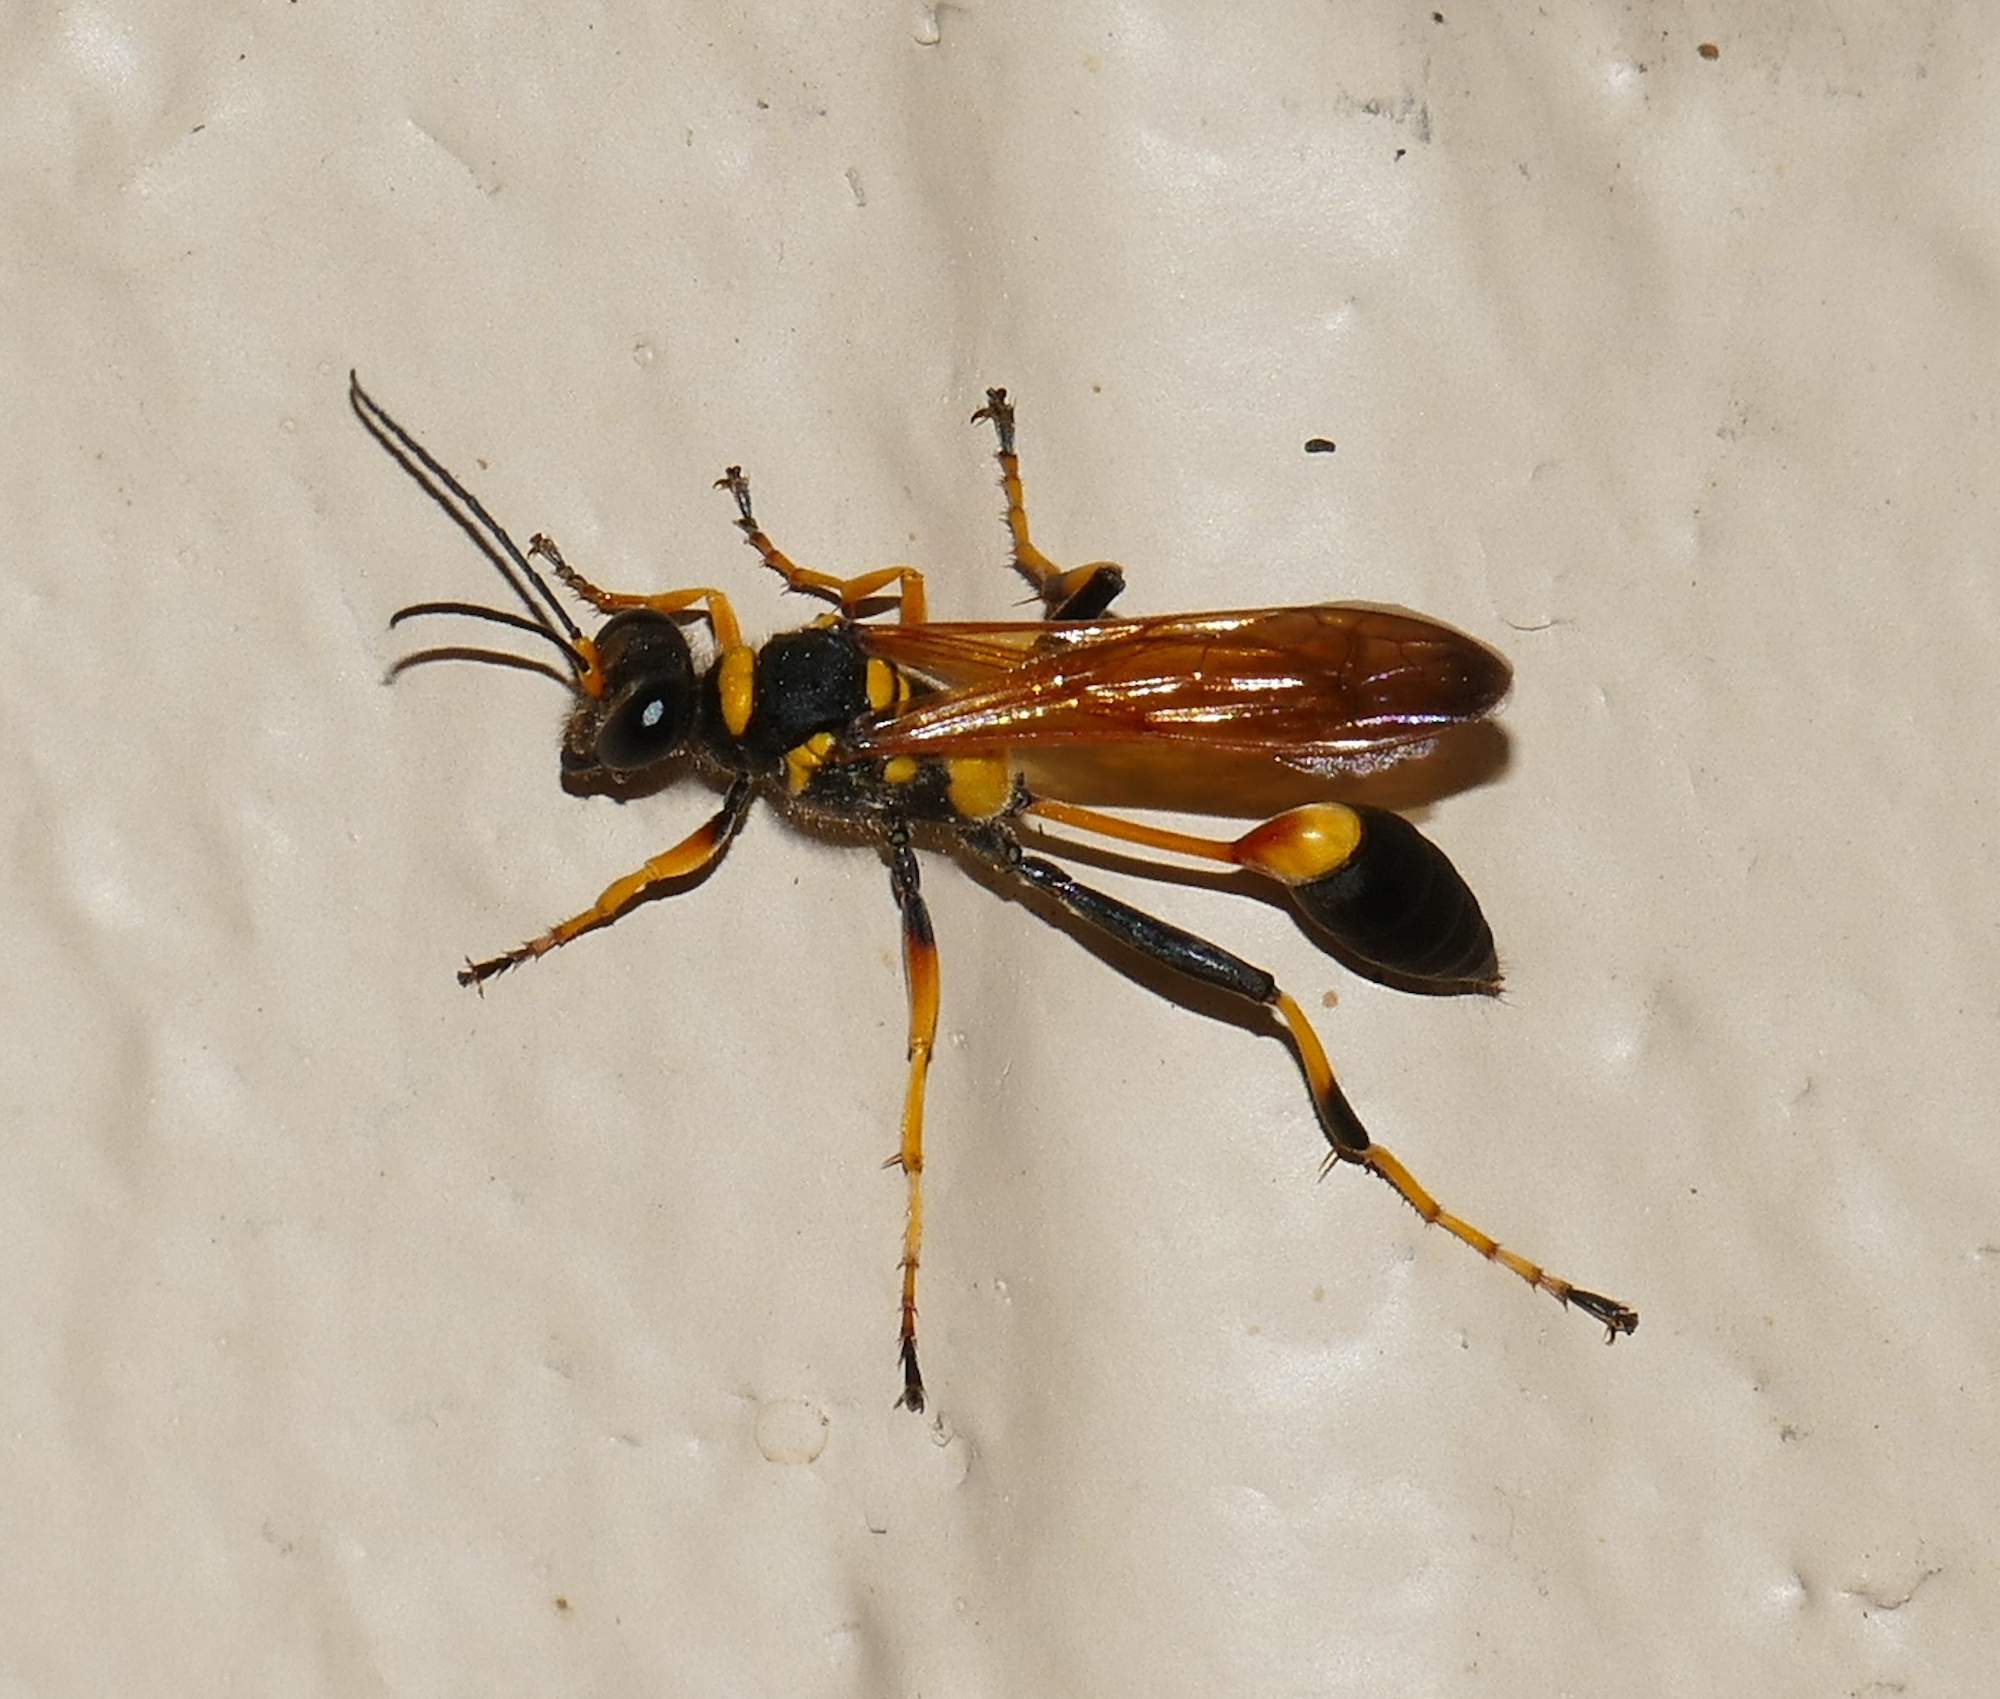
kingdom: Animalia
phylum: Arthropoda
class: Insecta
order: Hymenoptera
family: Sphecidae
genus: Sceliphron
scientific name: Sceliphron caementarium
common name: Mud dauber
